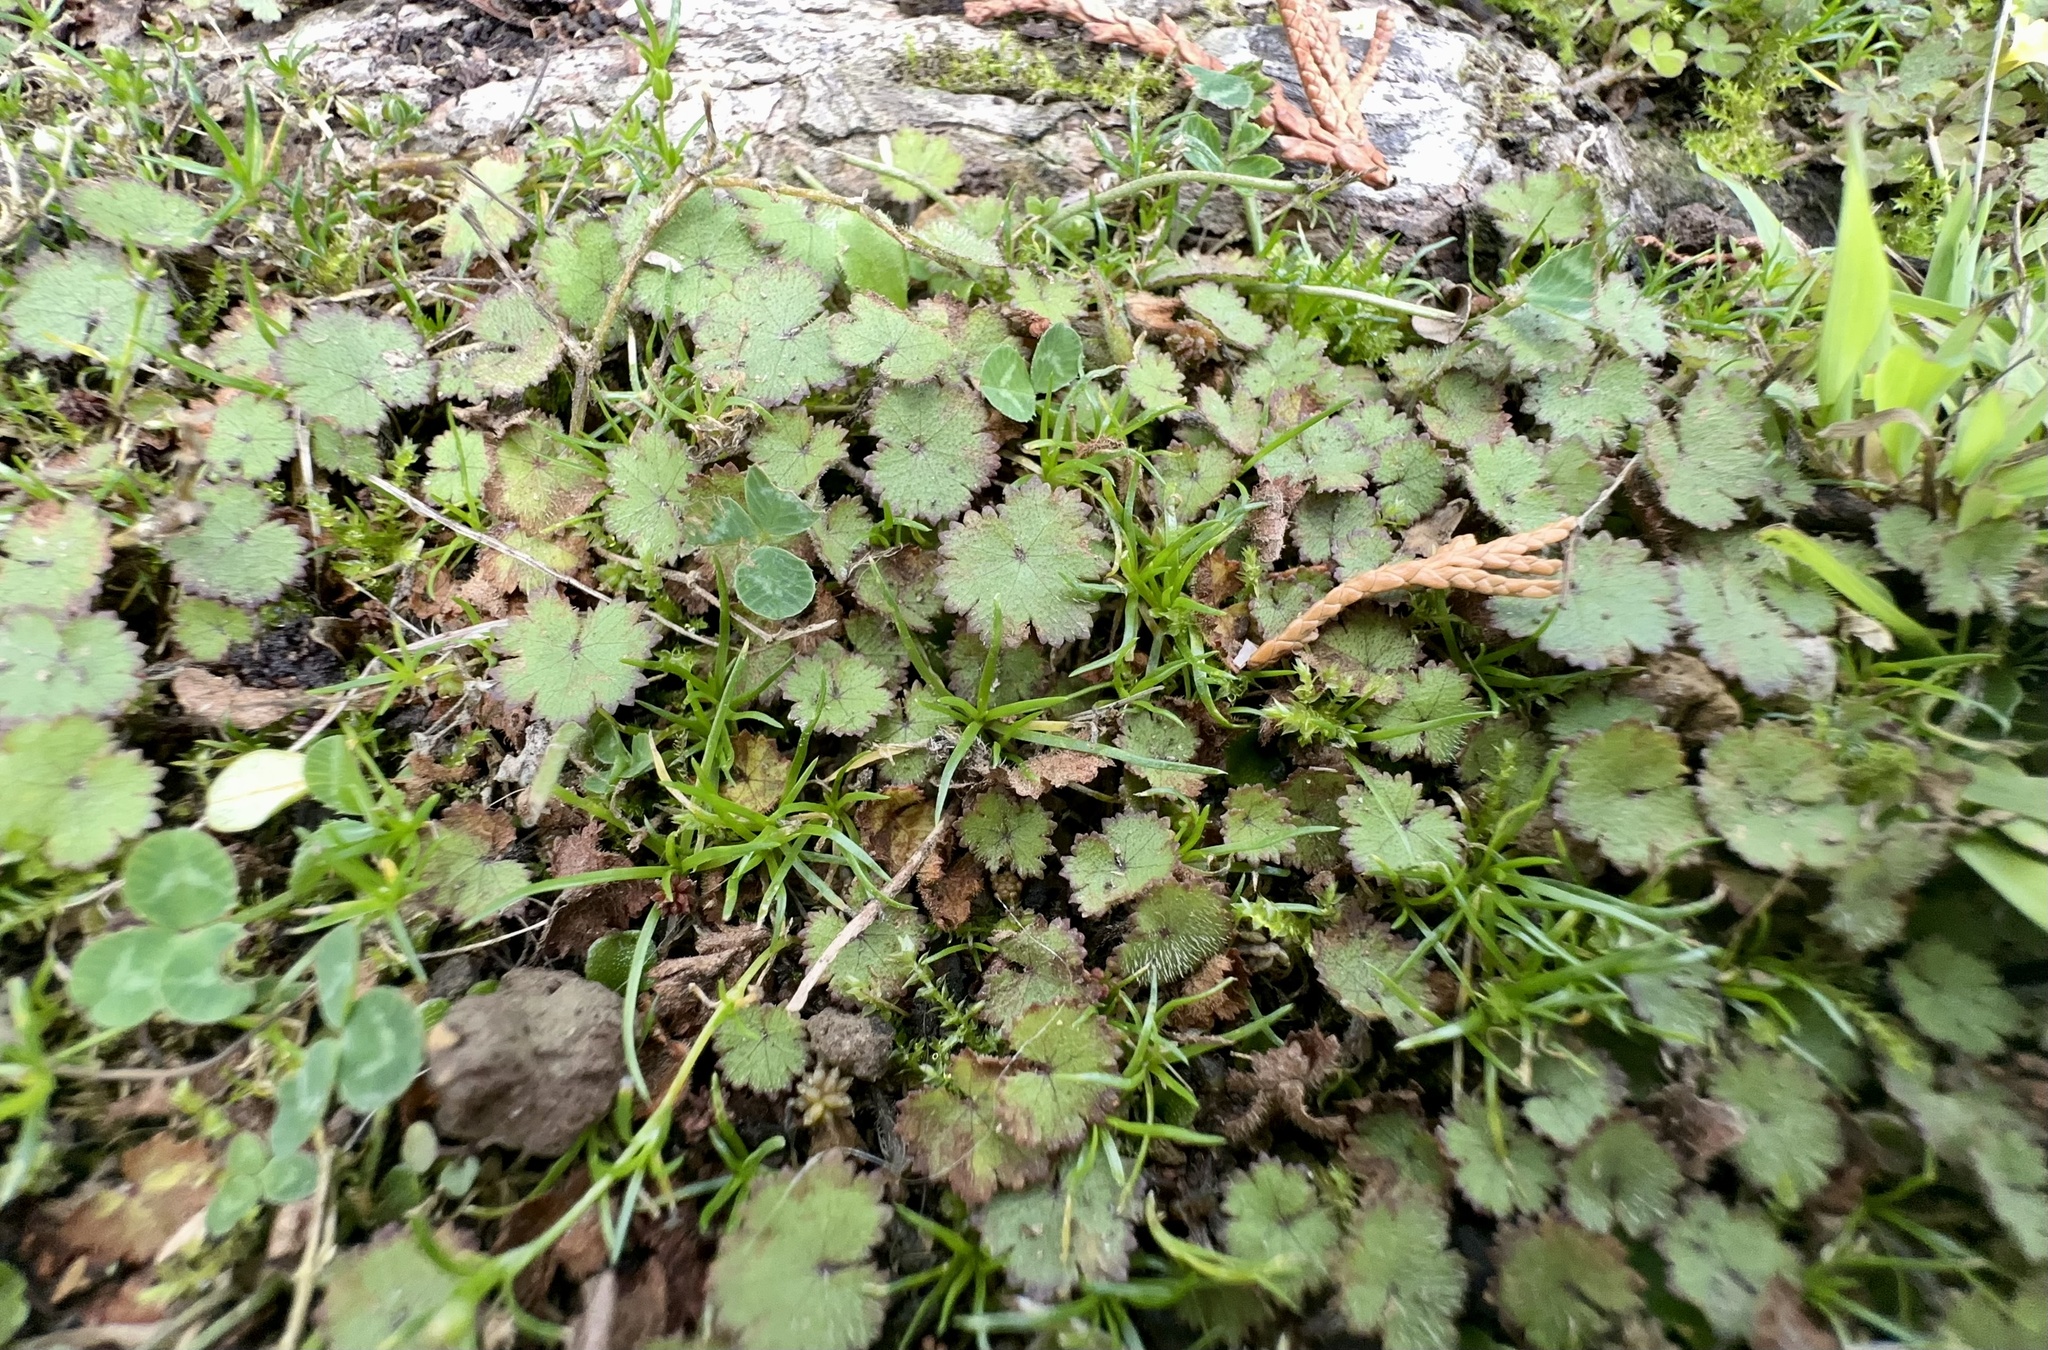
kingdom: Plantae
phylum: Tracheophyta
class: Magnoliopsida
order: Apiales
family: Araliaceae
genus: Hydrocotyle
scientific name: Hydrocotyle moschata
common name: Hairy pennywort
